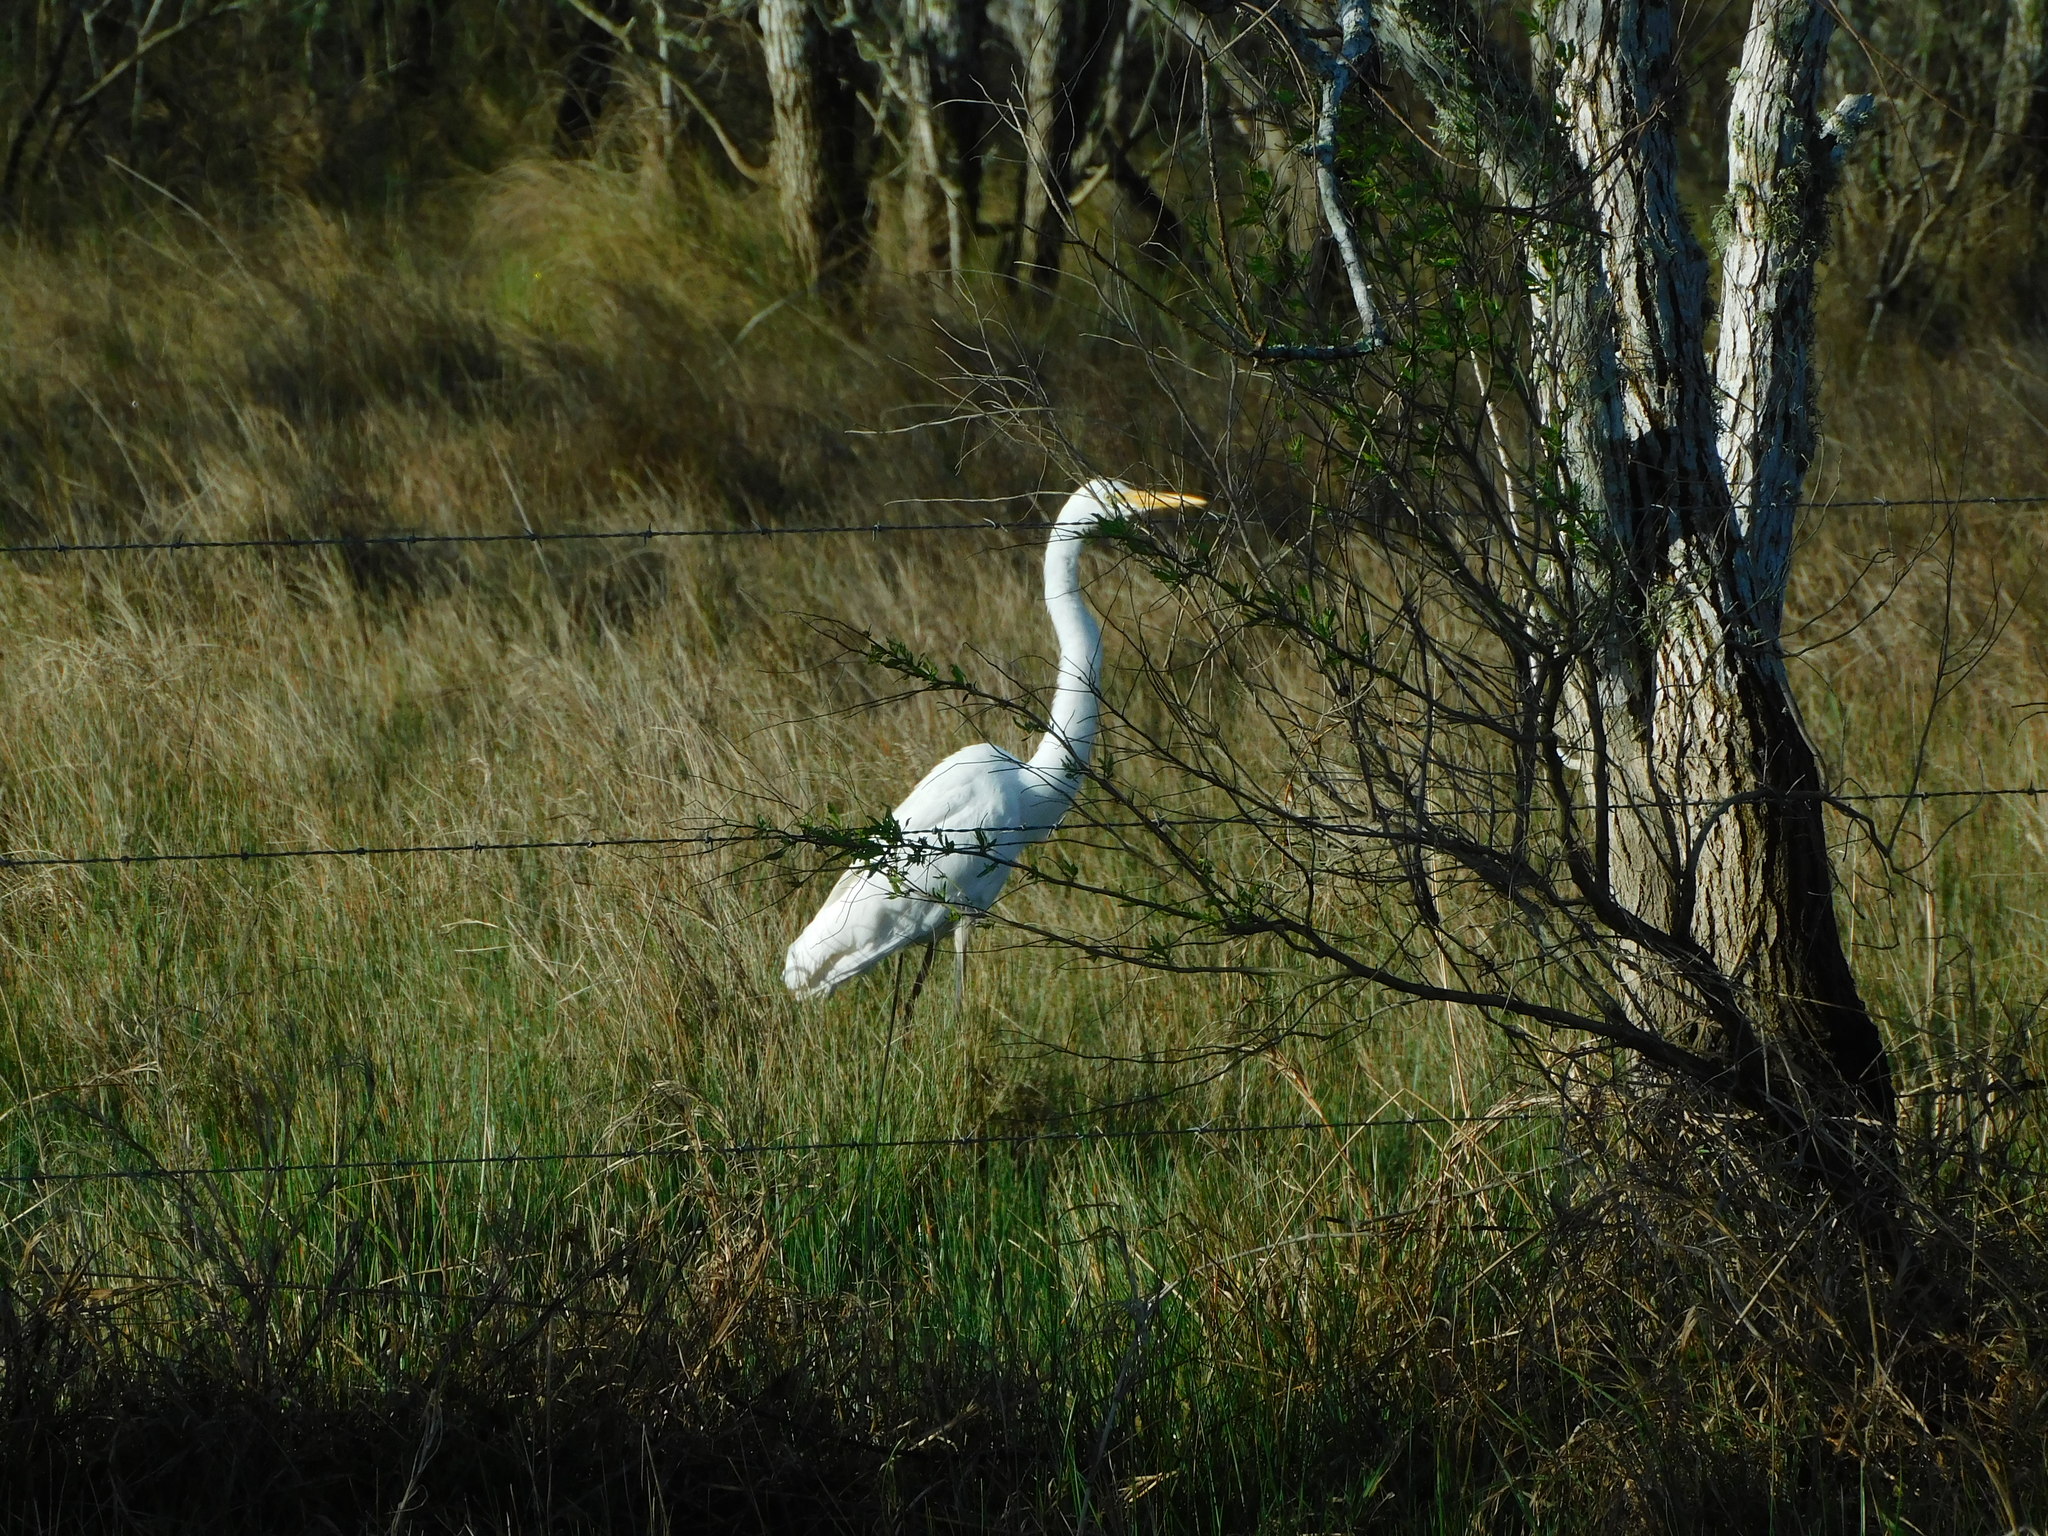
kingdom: Animalia
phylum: Chordata
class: Aves
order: Pelecaniformes
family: Ardeidae
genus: Ardea
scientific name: Ardea alba
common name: Great egret
